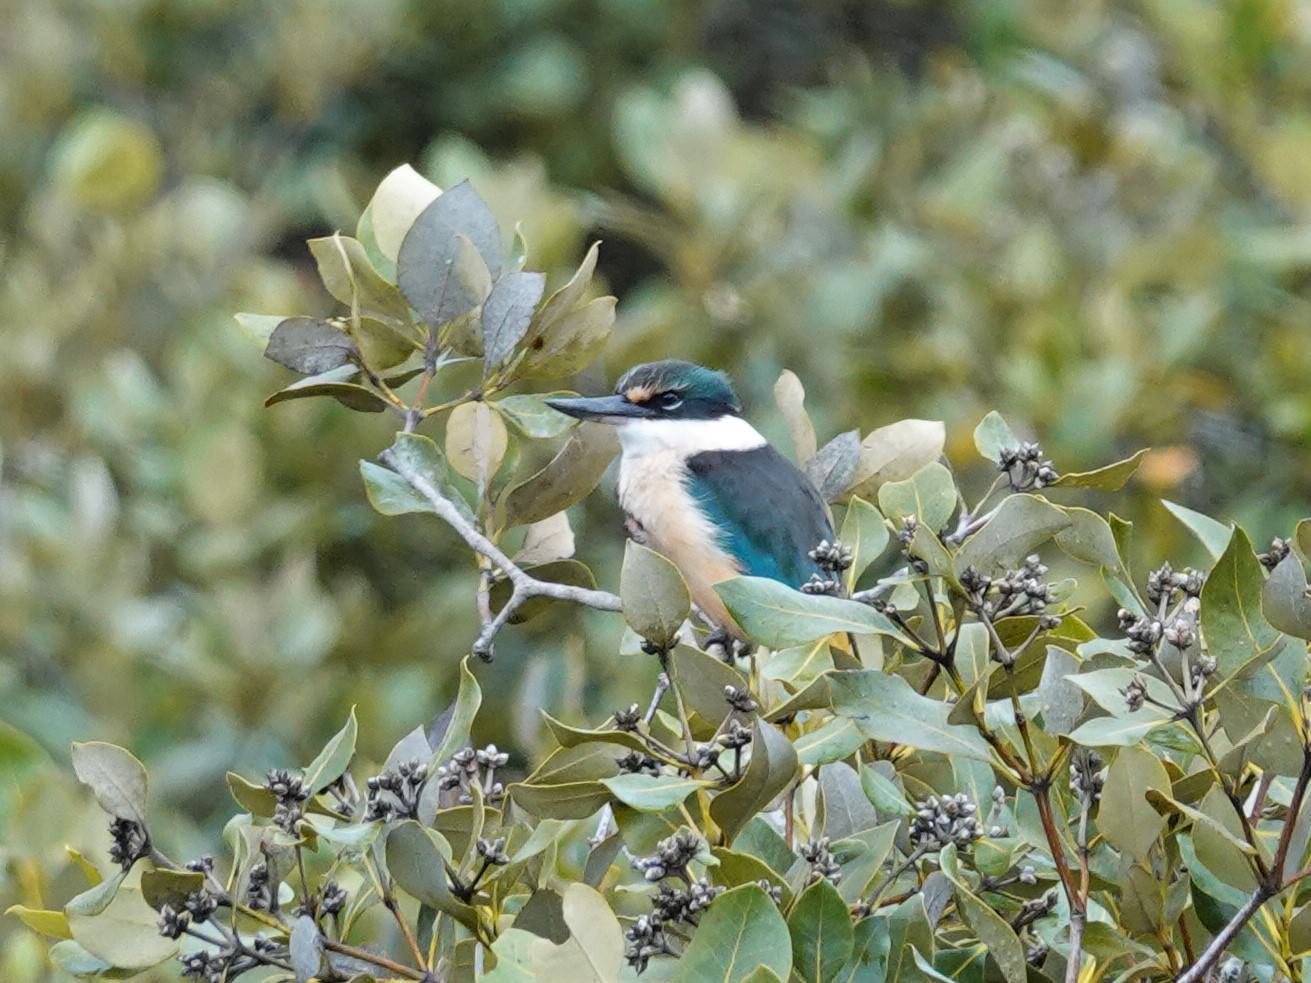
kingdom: Animalia
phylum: Chordata
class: Aves
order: Coraciiformes
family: Alcedinidae
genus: Todiramphus
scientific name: Todiramphus sanctus
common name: Sacred kingfisher
